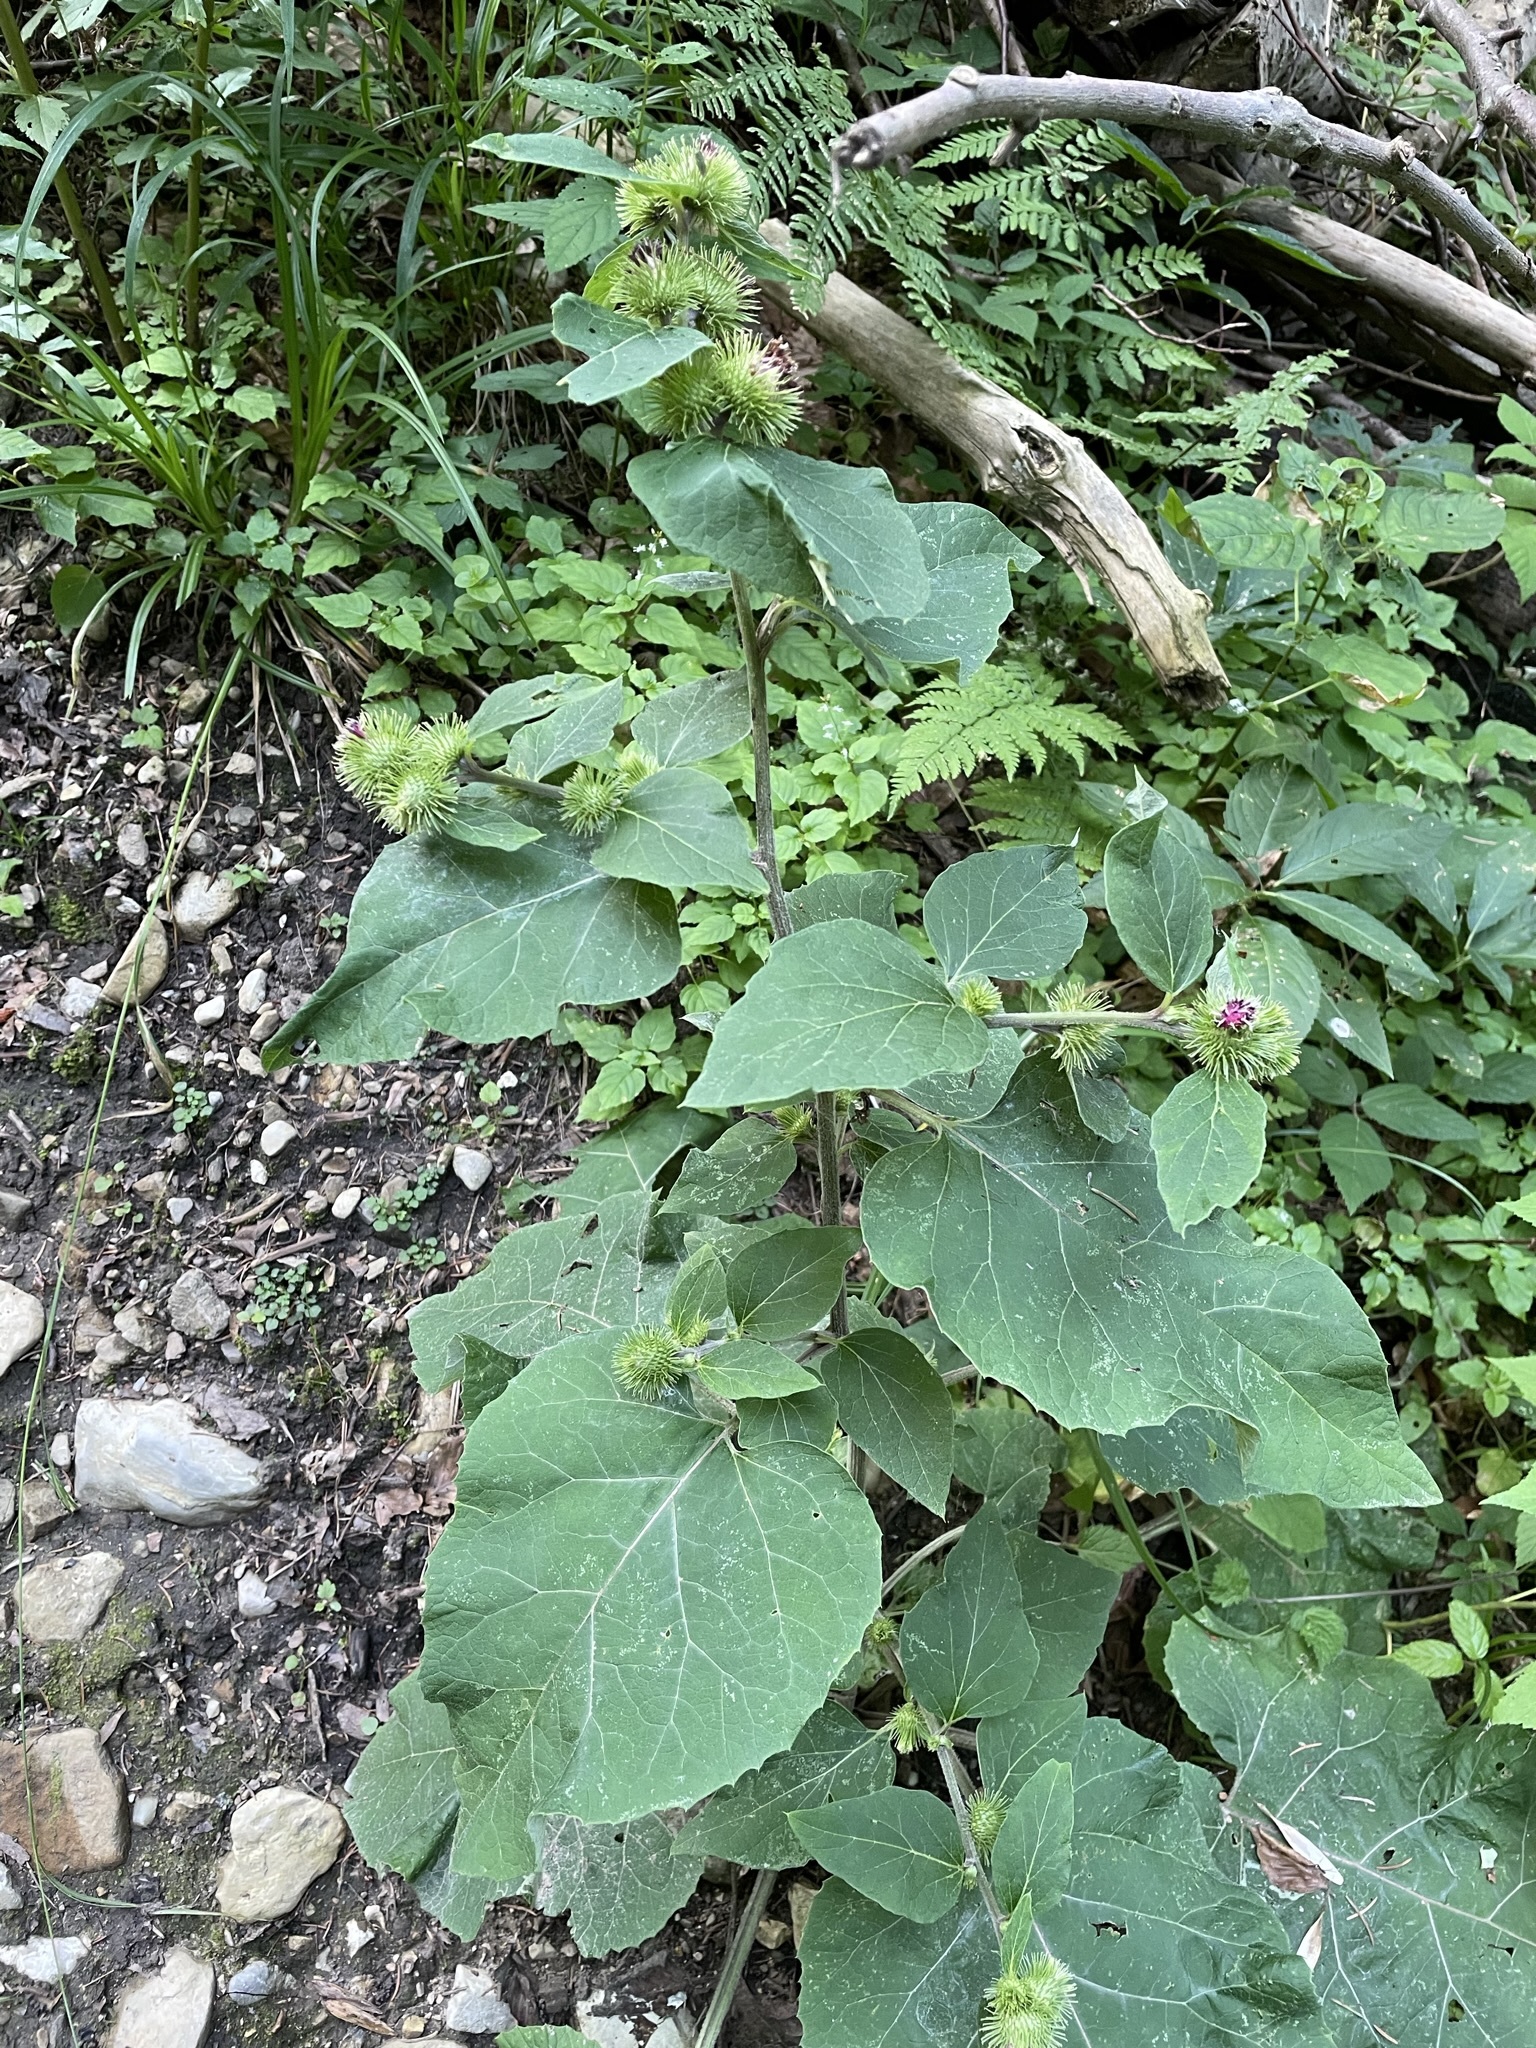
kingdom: Plantae
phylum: Tracheophyta
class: Magnoliopsida
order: Asterales
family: Asteraceae
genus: Arctium
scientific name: Arctium minus
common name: Lesser burdock
